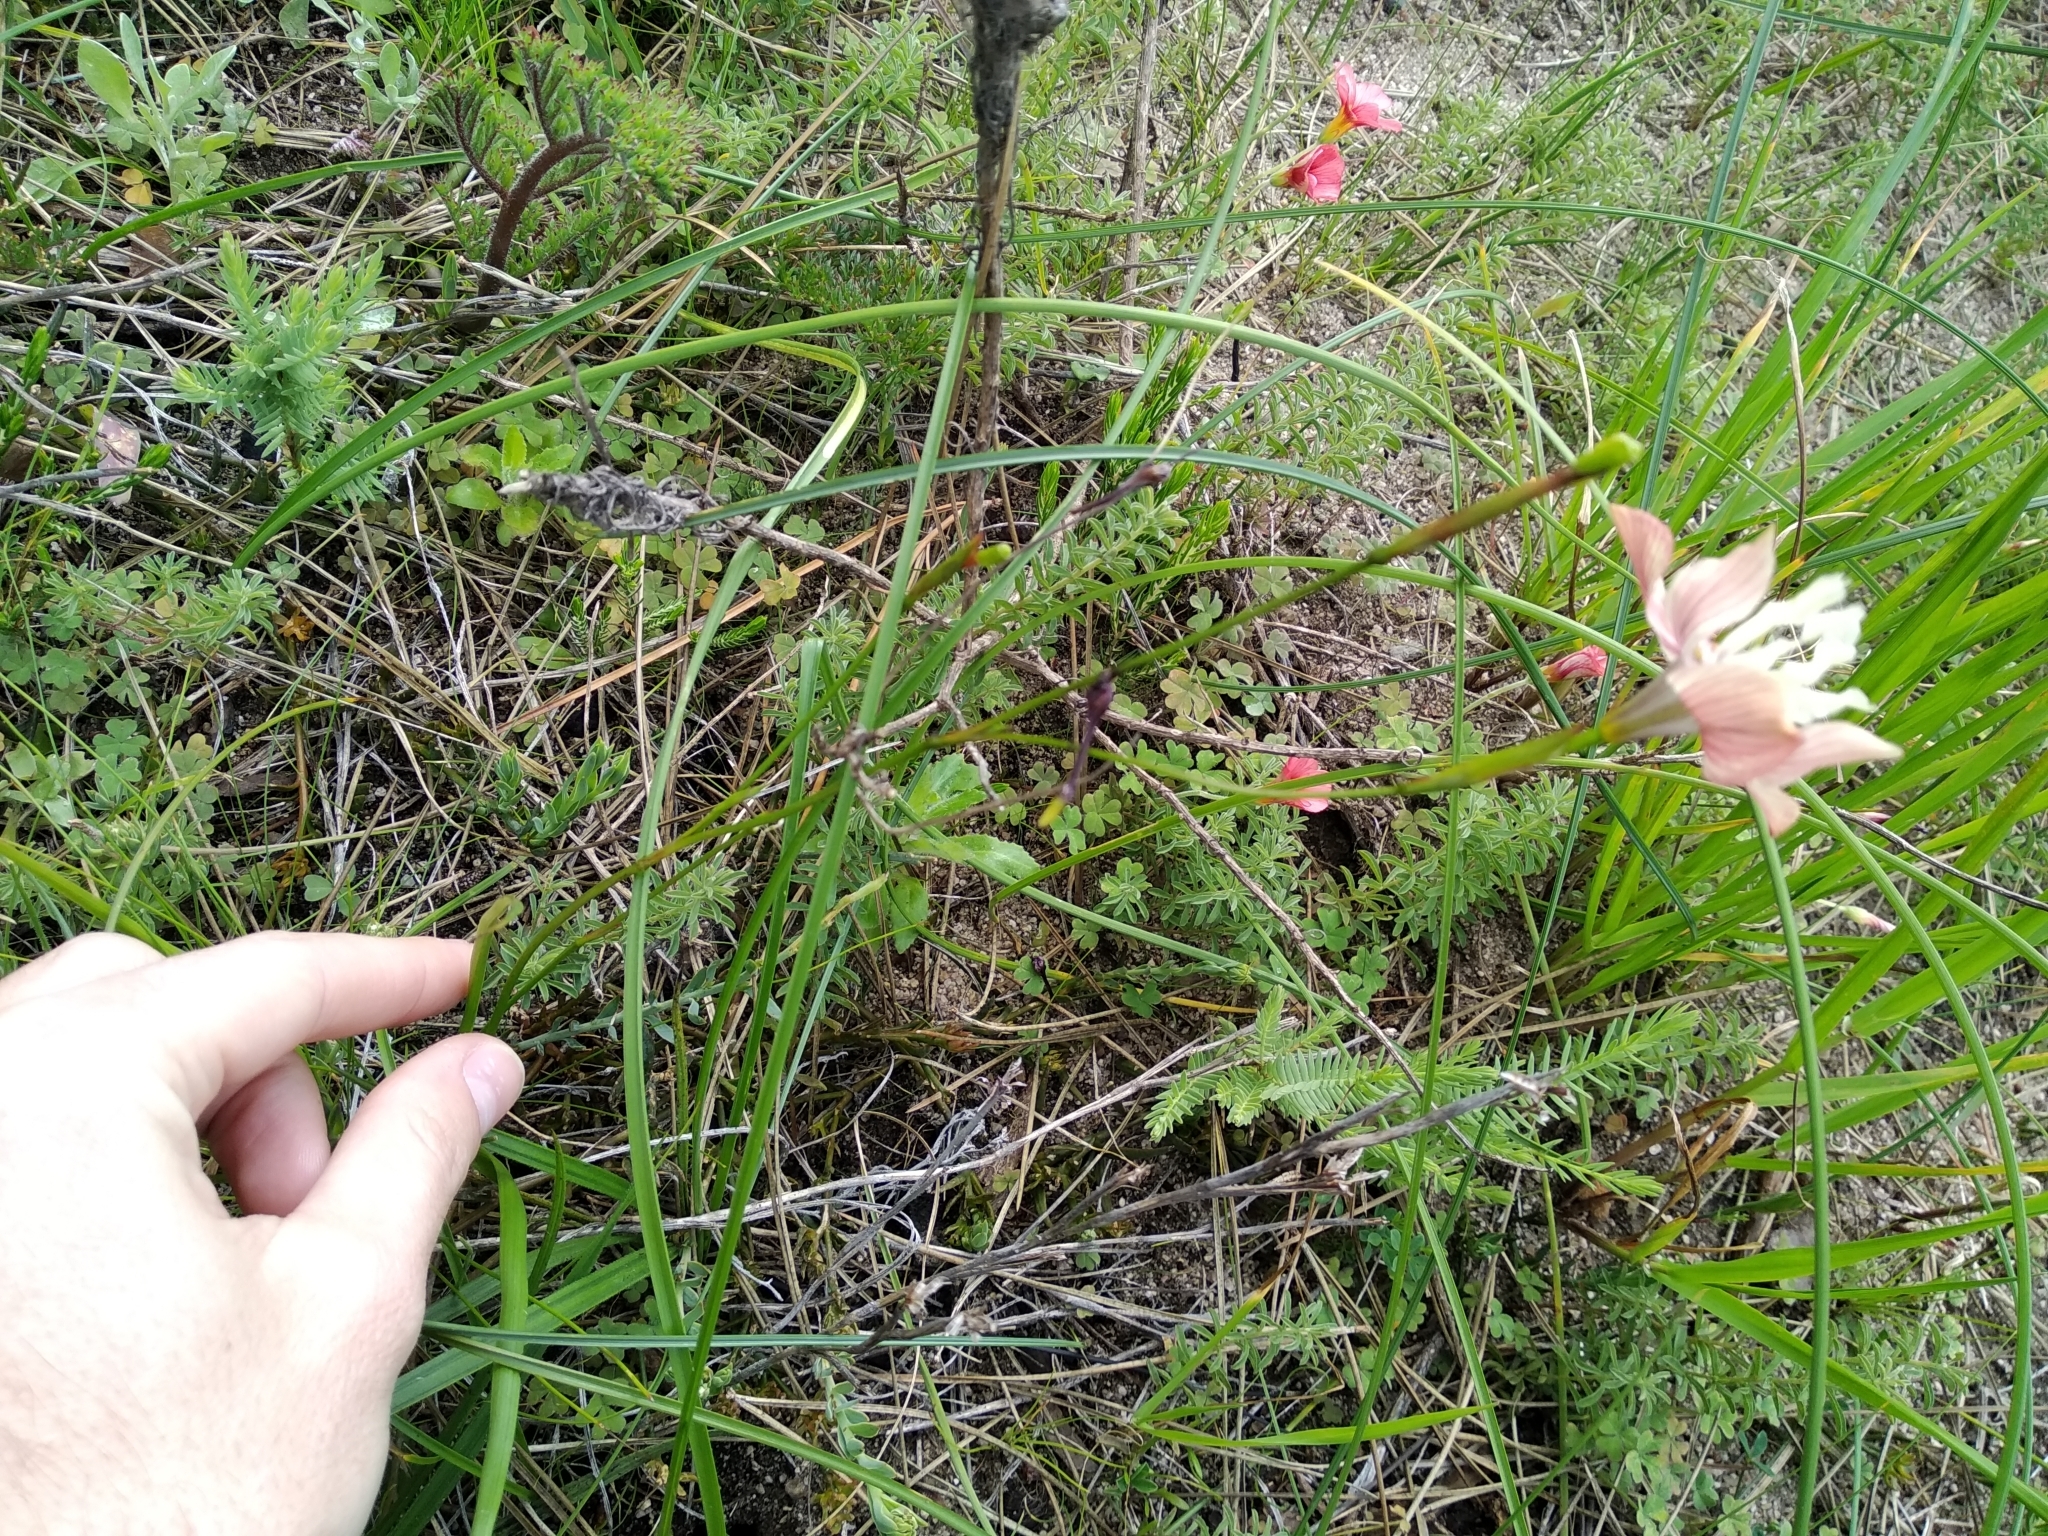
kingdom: Plantae
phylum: Tracheophyta
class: Liliopsida
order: Asparagales
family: Iridaceae
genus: Moraea
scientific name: Moraea gawleri
